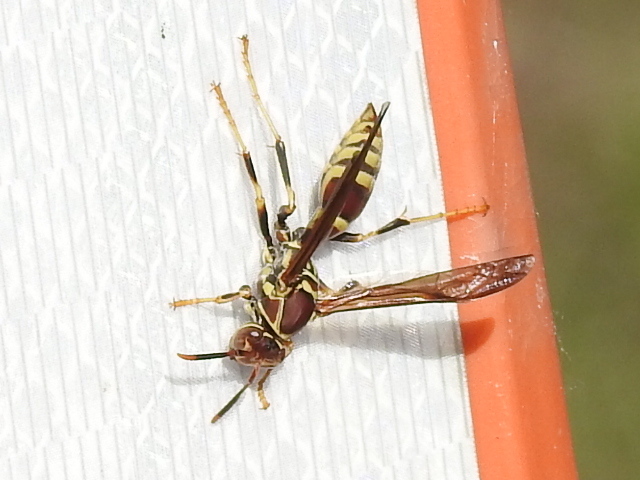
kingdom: Animalia
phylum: Arthropoda
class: Insecta
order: Hymenoptera
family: Eumenidae
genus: Polistes
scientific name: Polistes exclamans
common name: Paper wasp
